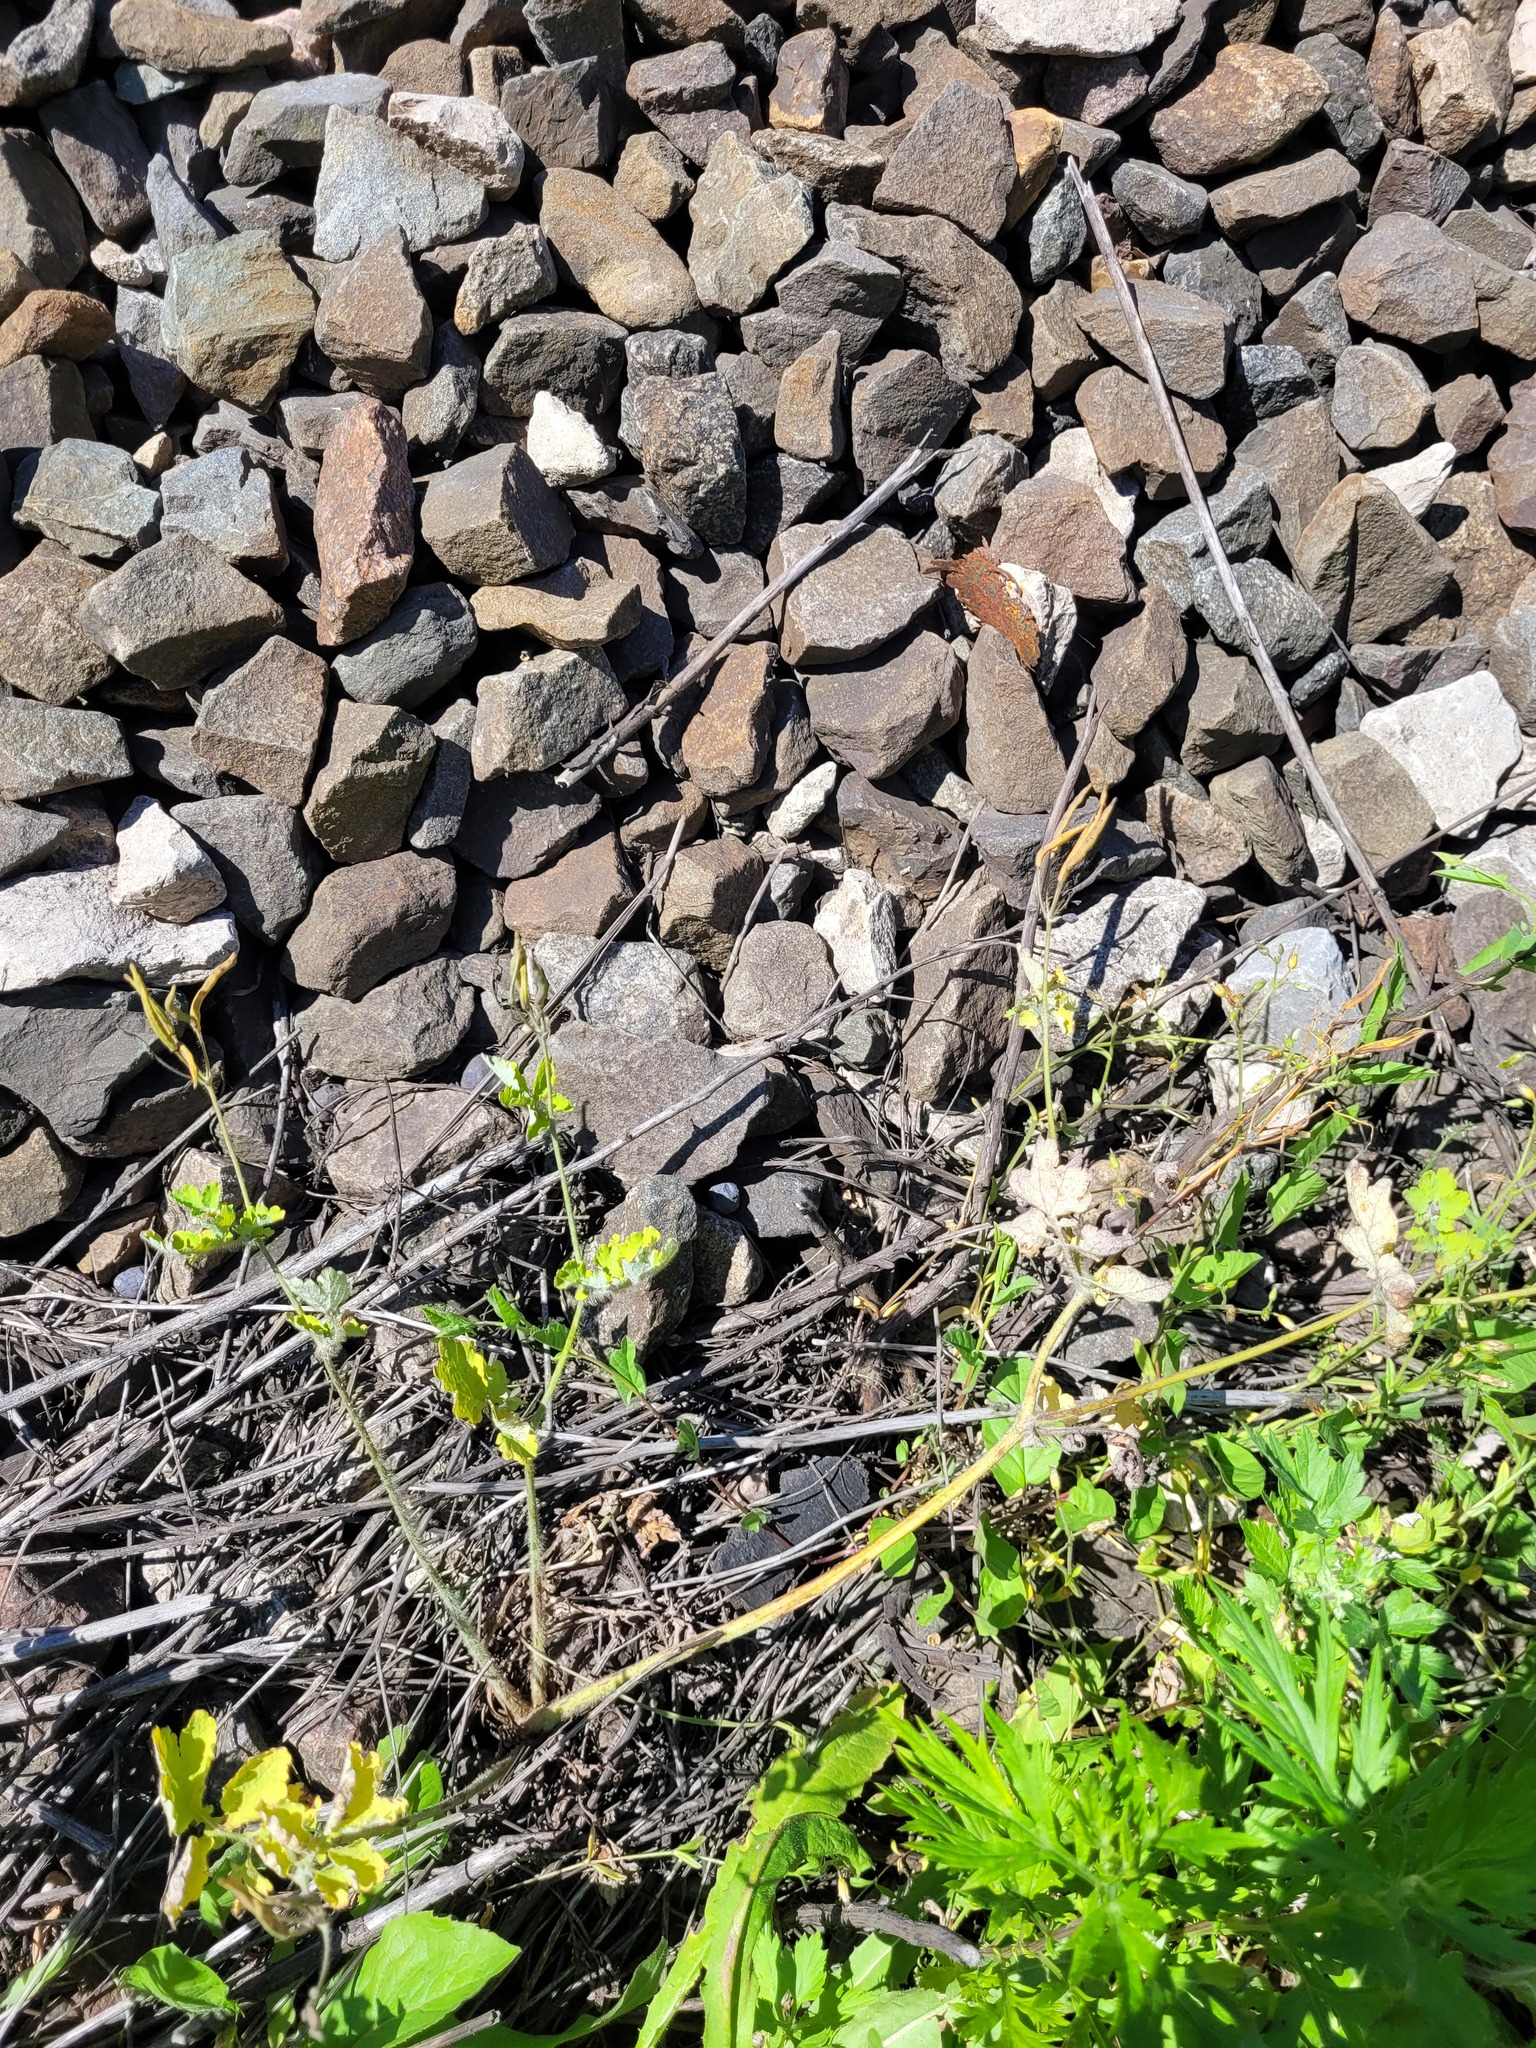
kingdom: Plantae
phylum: Tracheophyta
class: Magnoliopsida
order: Ranunculales
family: Papaveraceae
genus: Chelidonium
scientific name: Chelidonium majus
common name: Greater celandine
